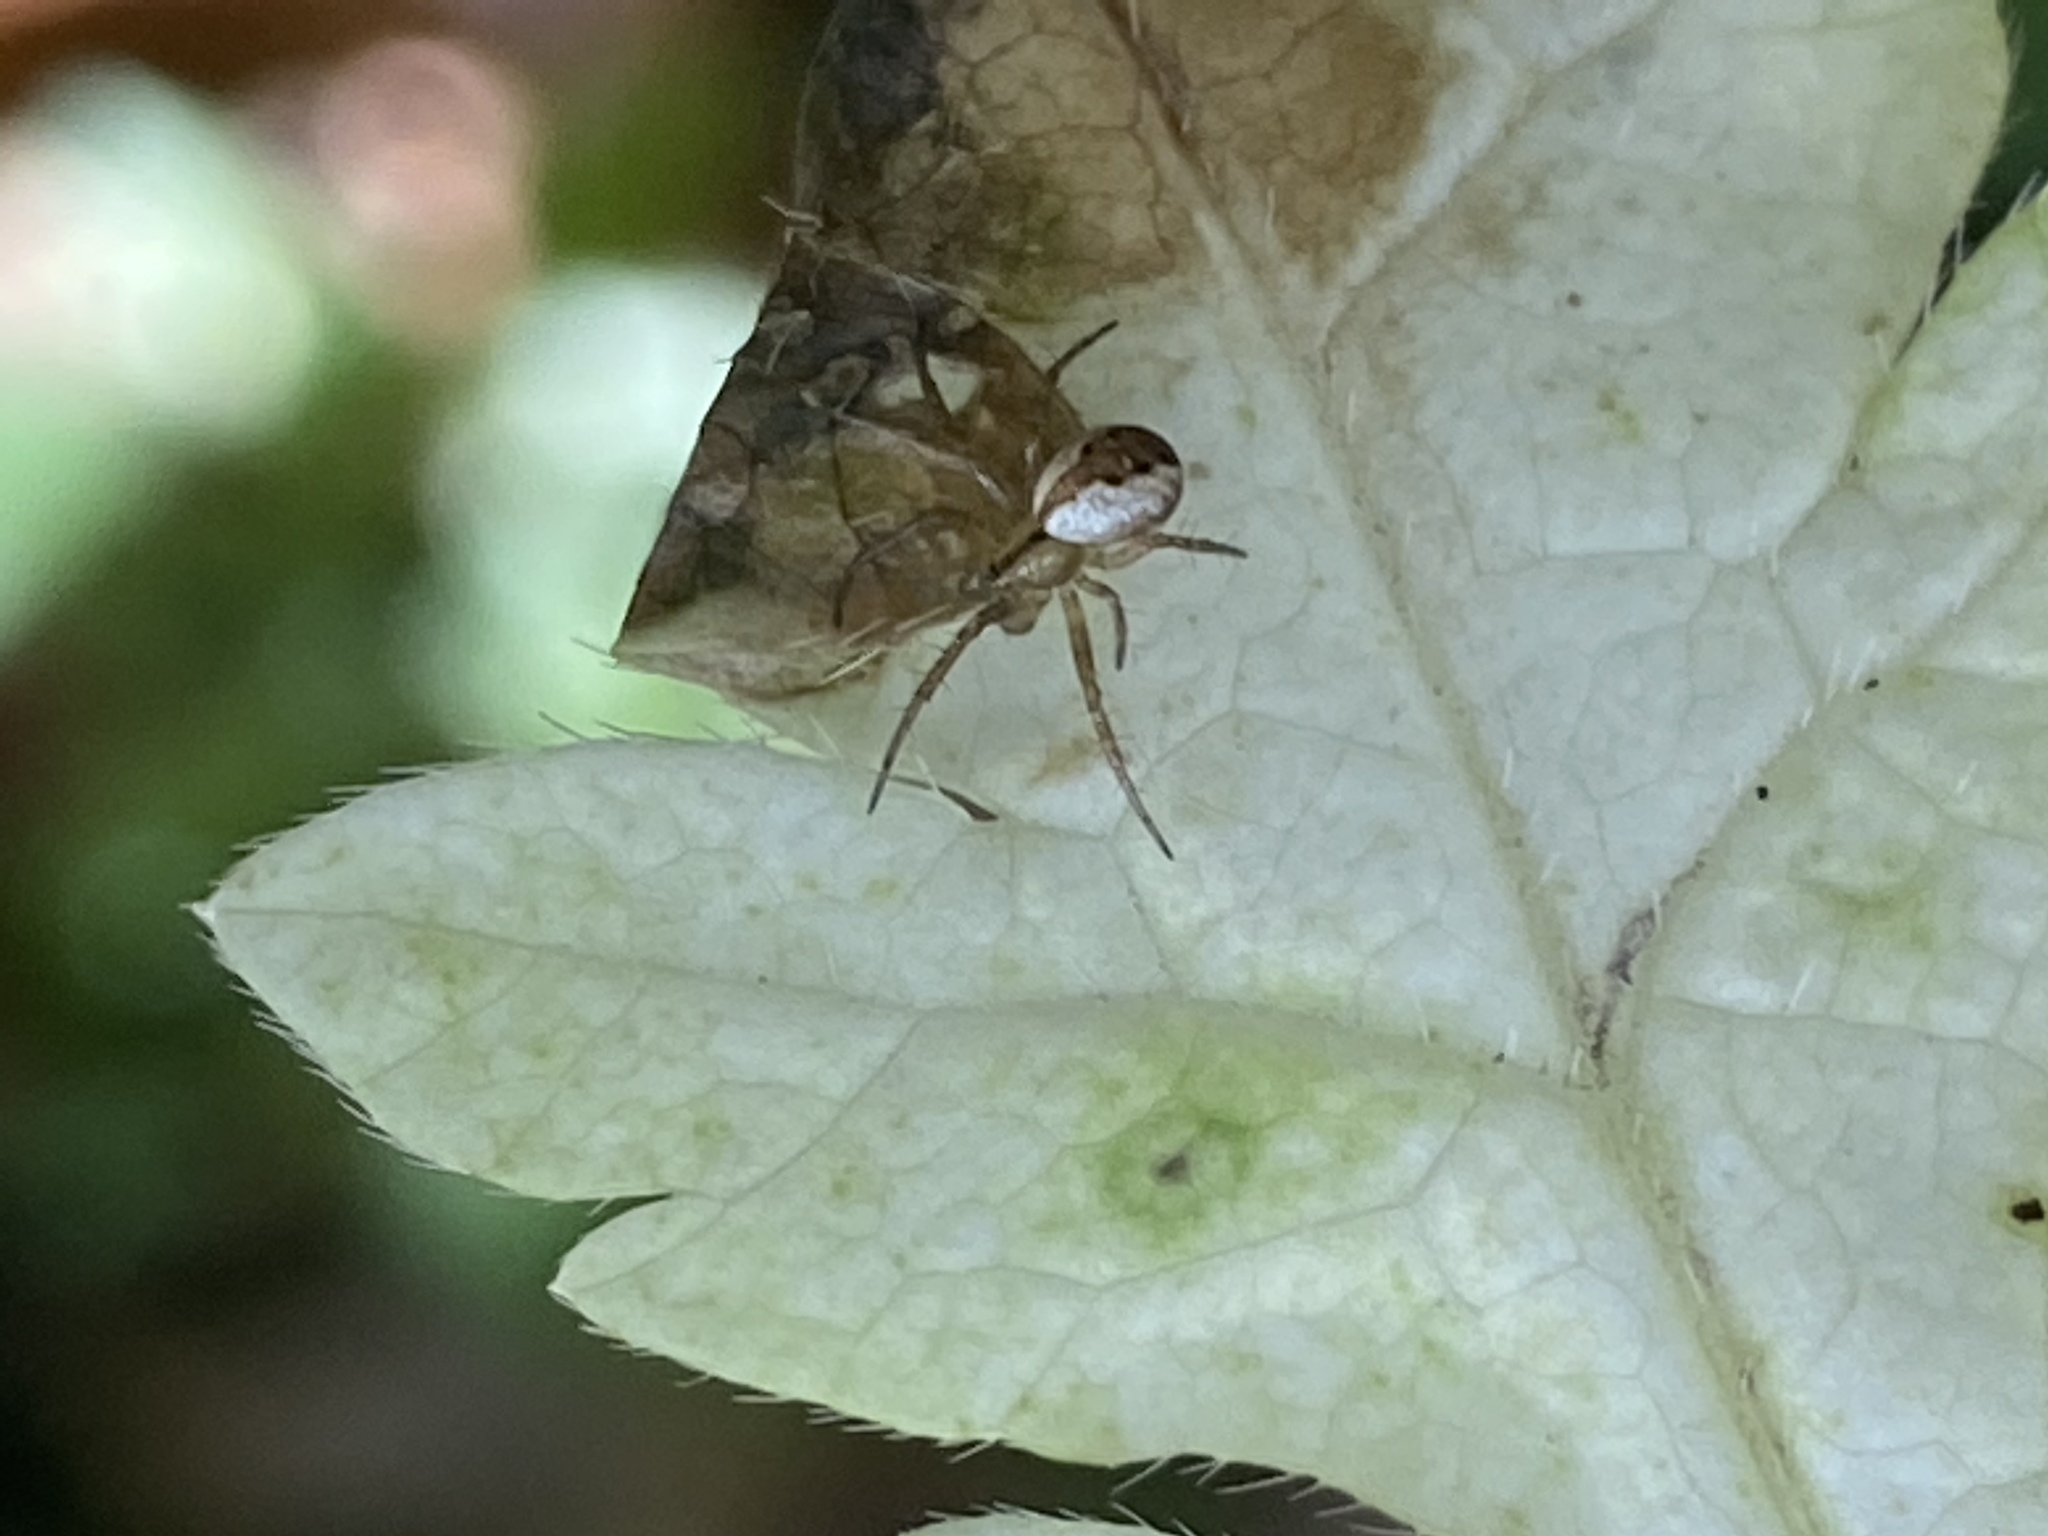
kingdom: Animalia
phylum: Arthropoda
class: Arachnida
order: Araneae
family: Araneidae
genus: Mangora
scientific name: Mangora placida
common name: Tuft-legged orbweaver
